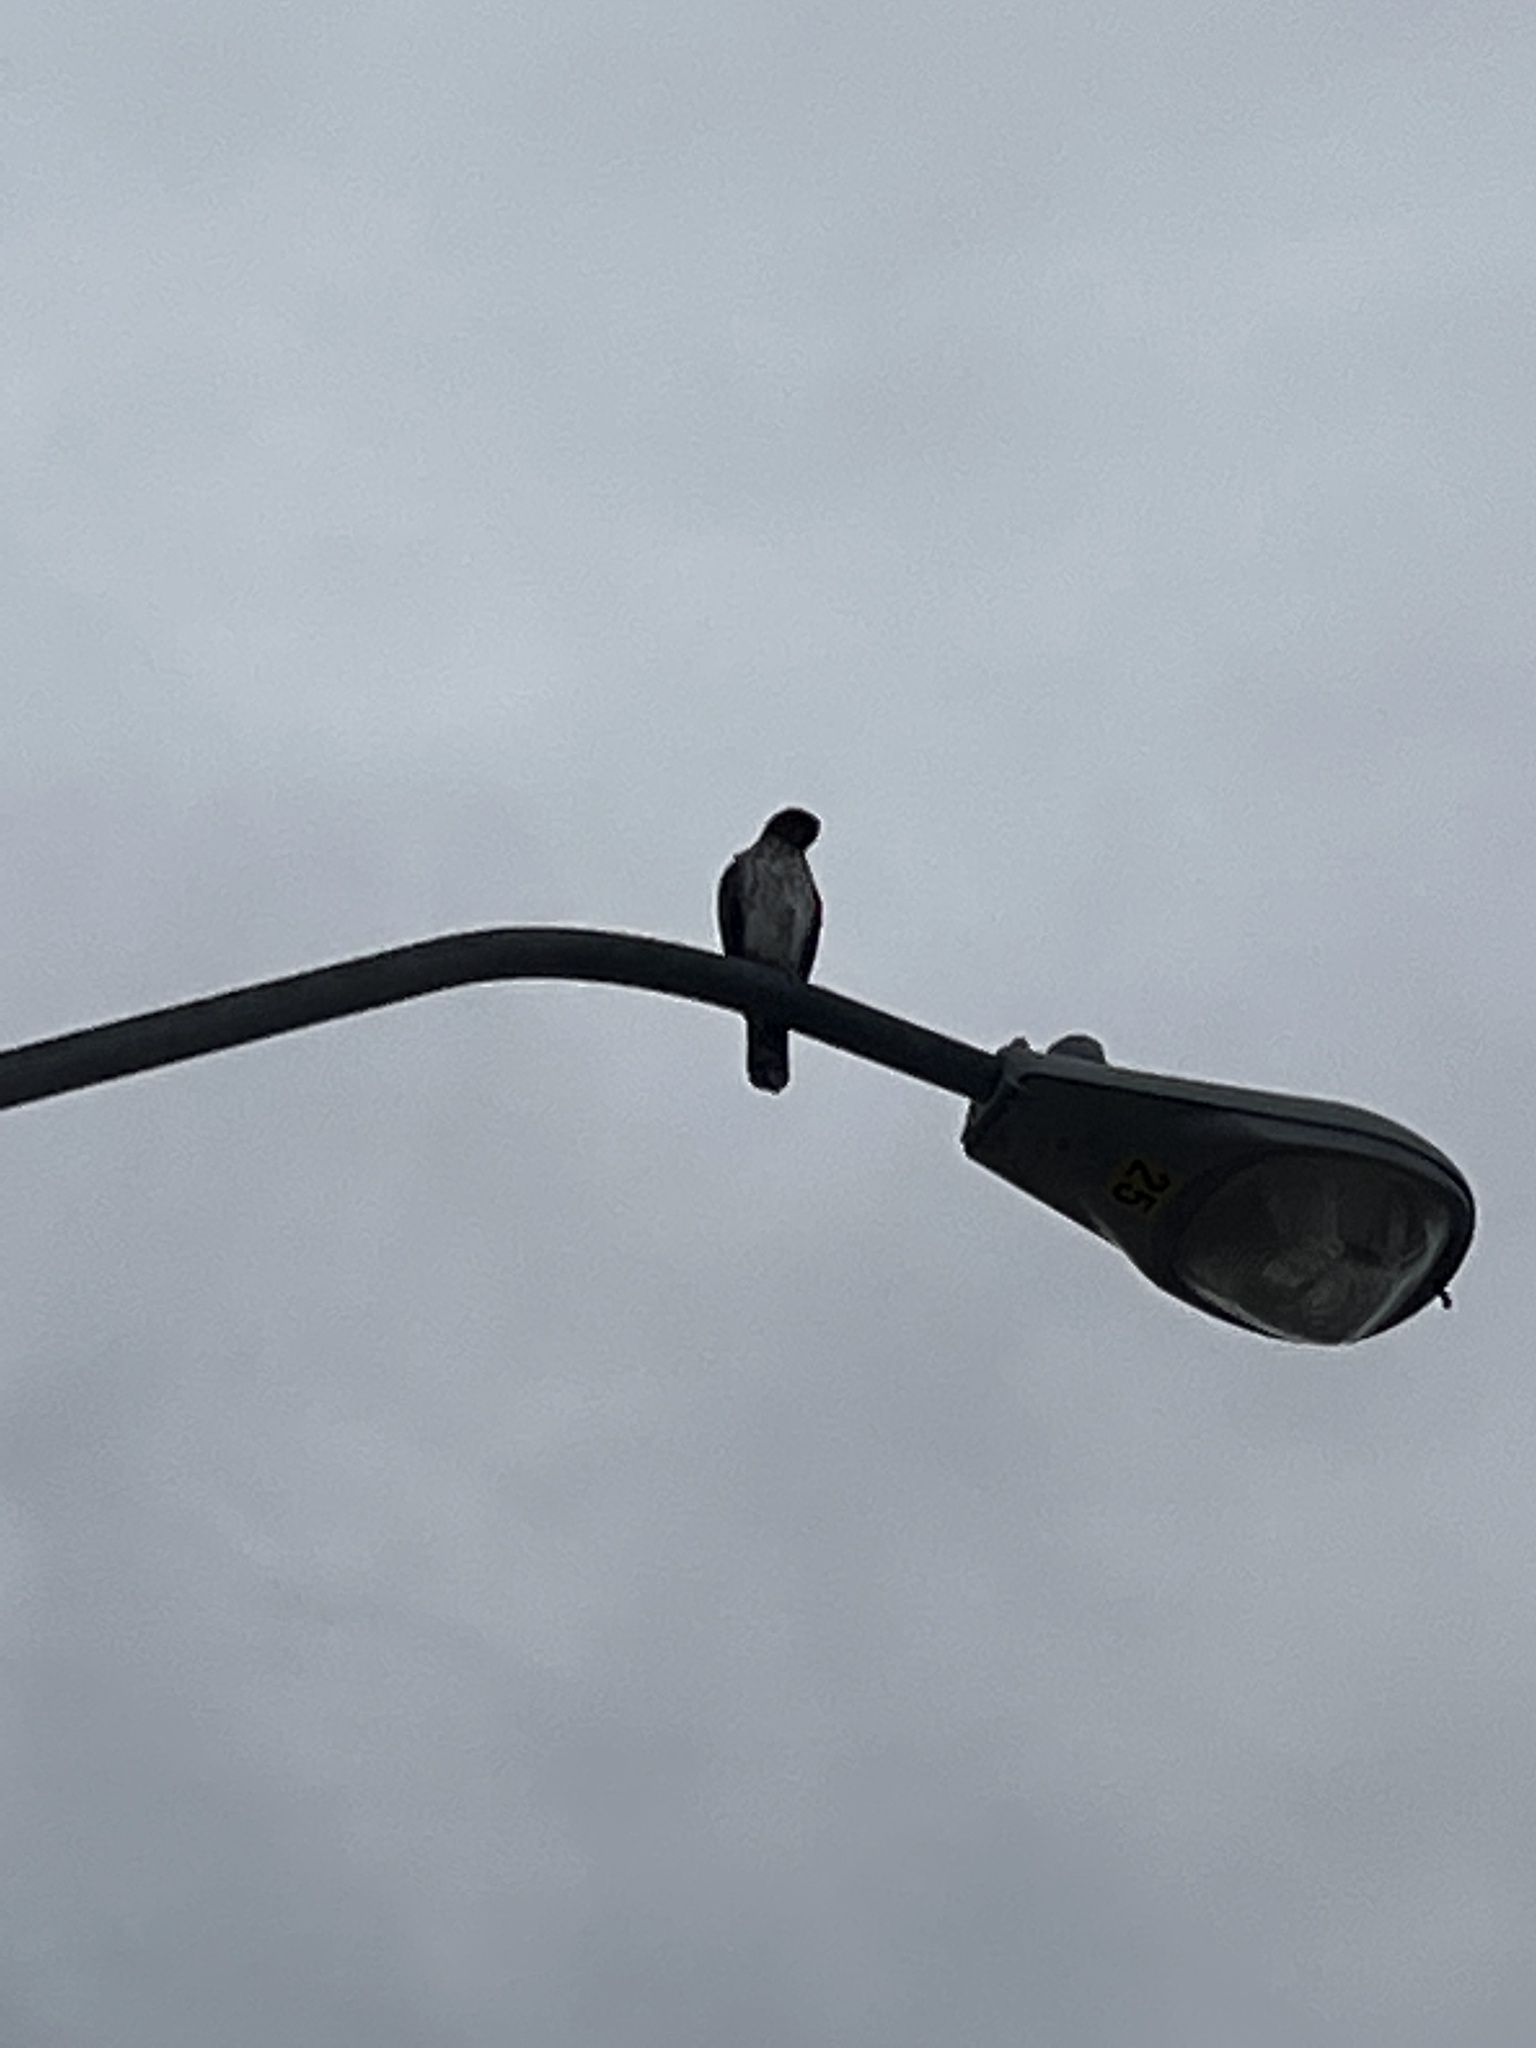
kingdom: Animalia
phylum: Chordata
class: Aves
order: Accipitriformes
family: Accipitridae
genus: Buteo
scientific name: Buteo jamaicensis
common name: Red-tailed hawk
